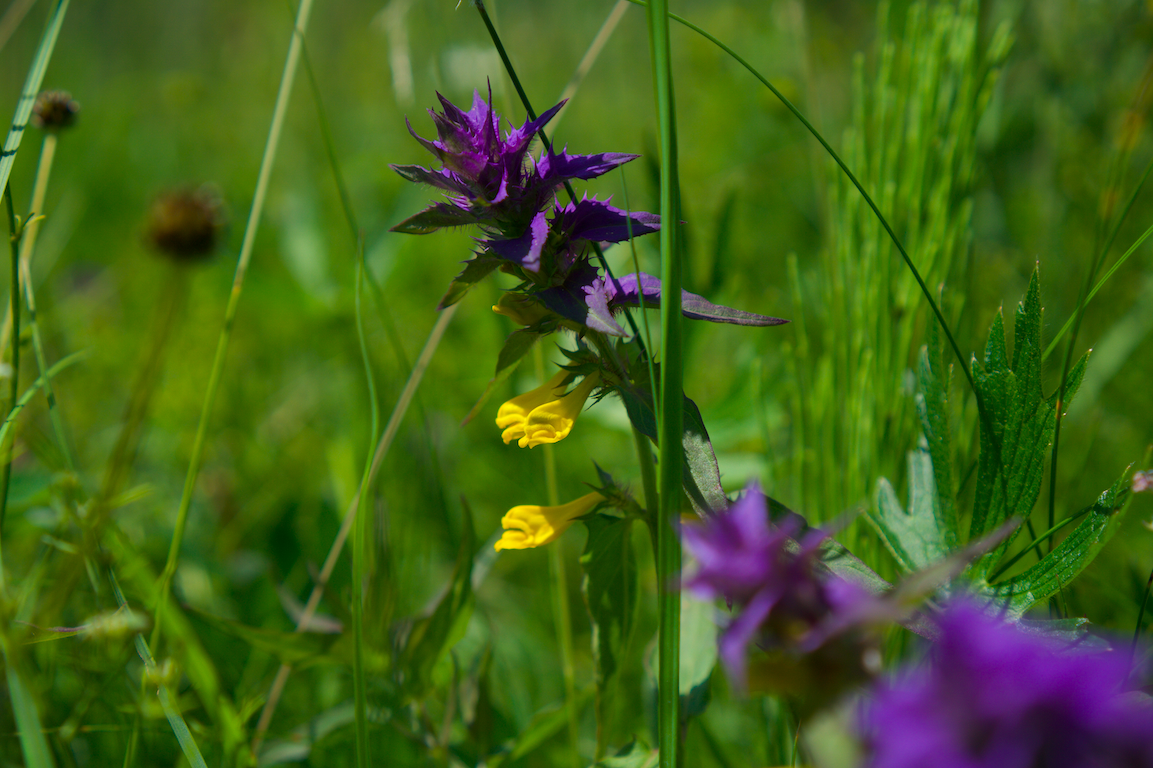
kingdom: Plantae
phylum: Tracheophyta
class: Magnoliopsida
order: Lamiales
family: Orobanchaceae
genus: Melampyrum
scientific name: Melampyrum nemorosum
